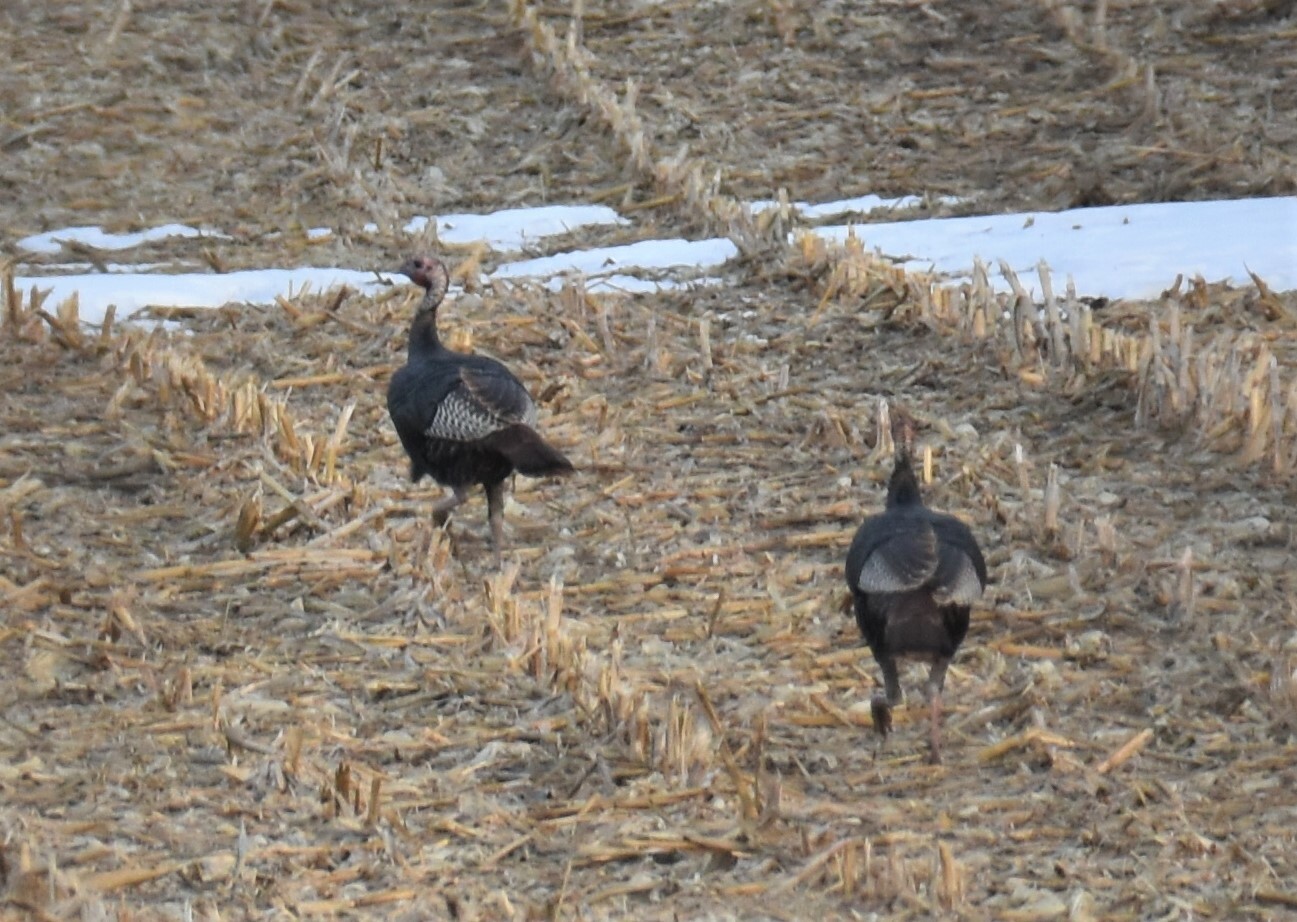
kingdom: Animalia
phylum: Chordata
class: Aves
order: Galliformes
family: Phasianidae
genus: Meleagris
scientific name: Meleagris gallopavo
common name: Wild turkey
